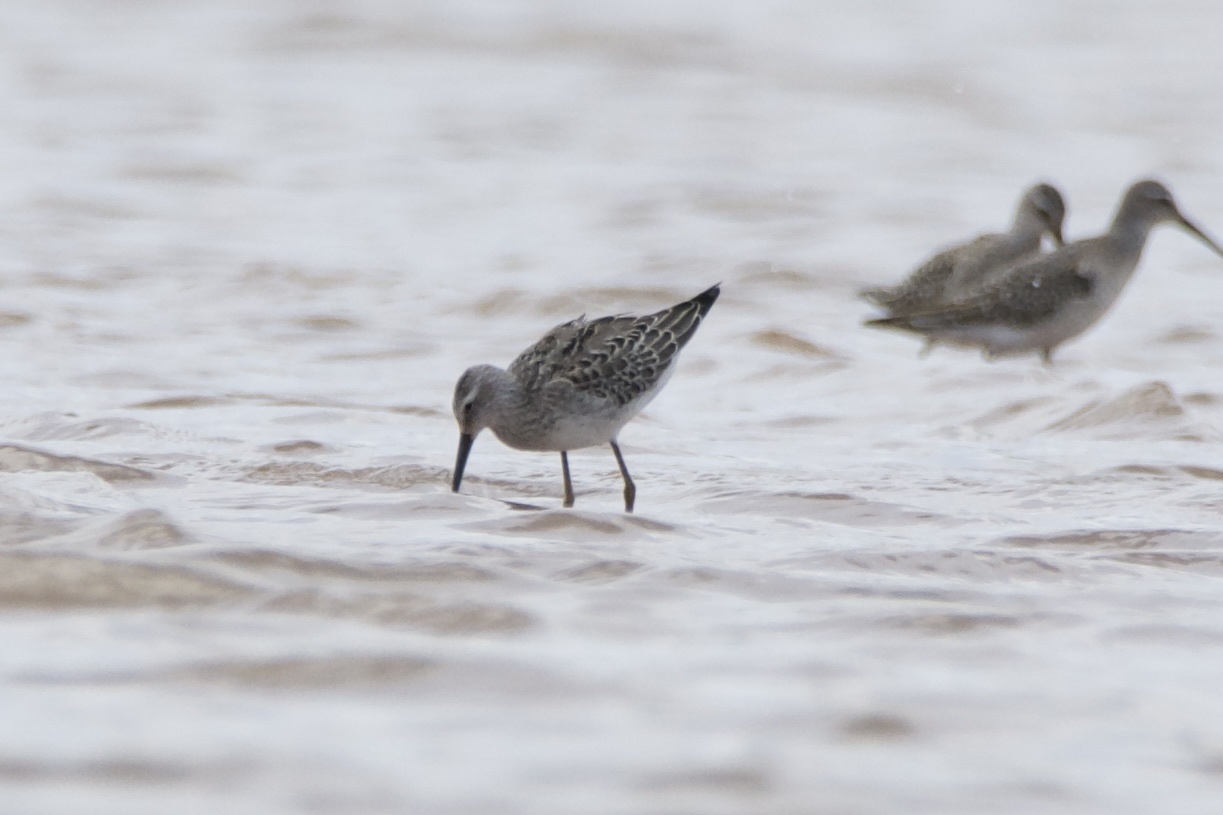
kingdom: Animalia
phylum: Chordata
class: Aves
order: Charadriiformes
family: Scolopacidae
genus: Calidris
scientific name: Calidris himantopus
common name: Stilt sandpiper
